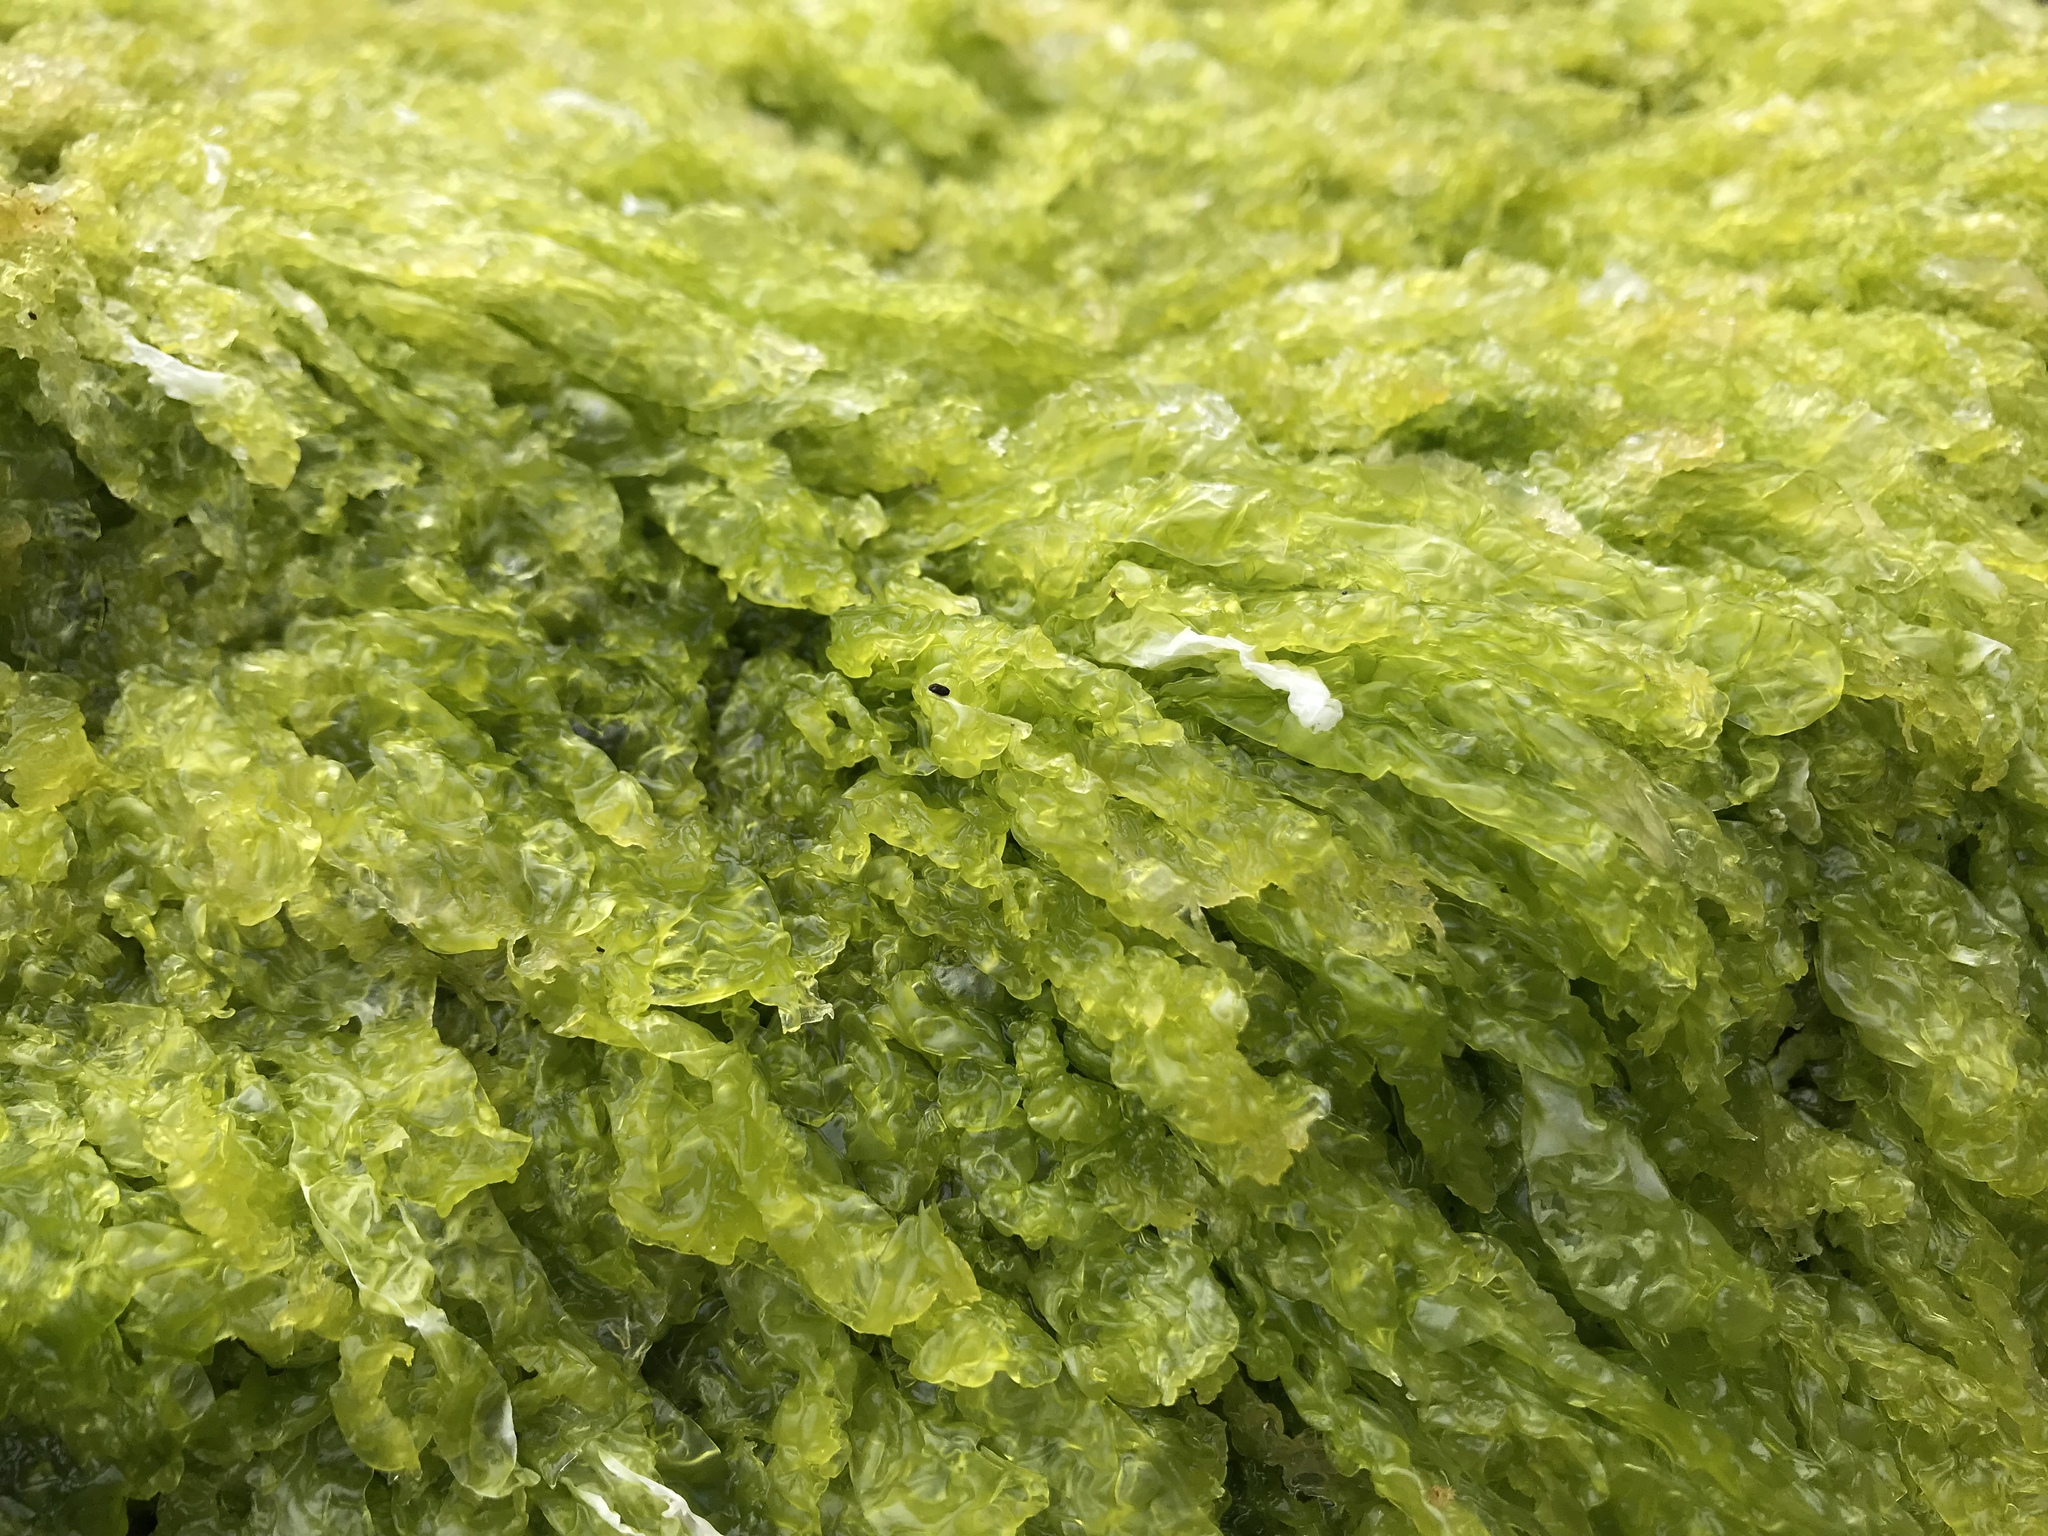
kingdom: Plantae
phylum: Chlorophyta
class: Ulvophyceae
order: Ulvales
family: Ulvaceae
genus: Ulva
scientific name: Ulva intestinalis
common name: Gut weed
